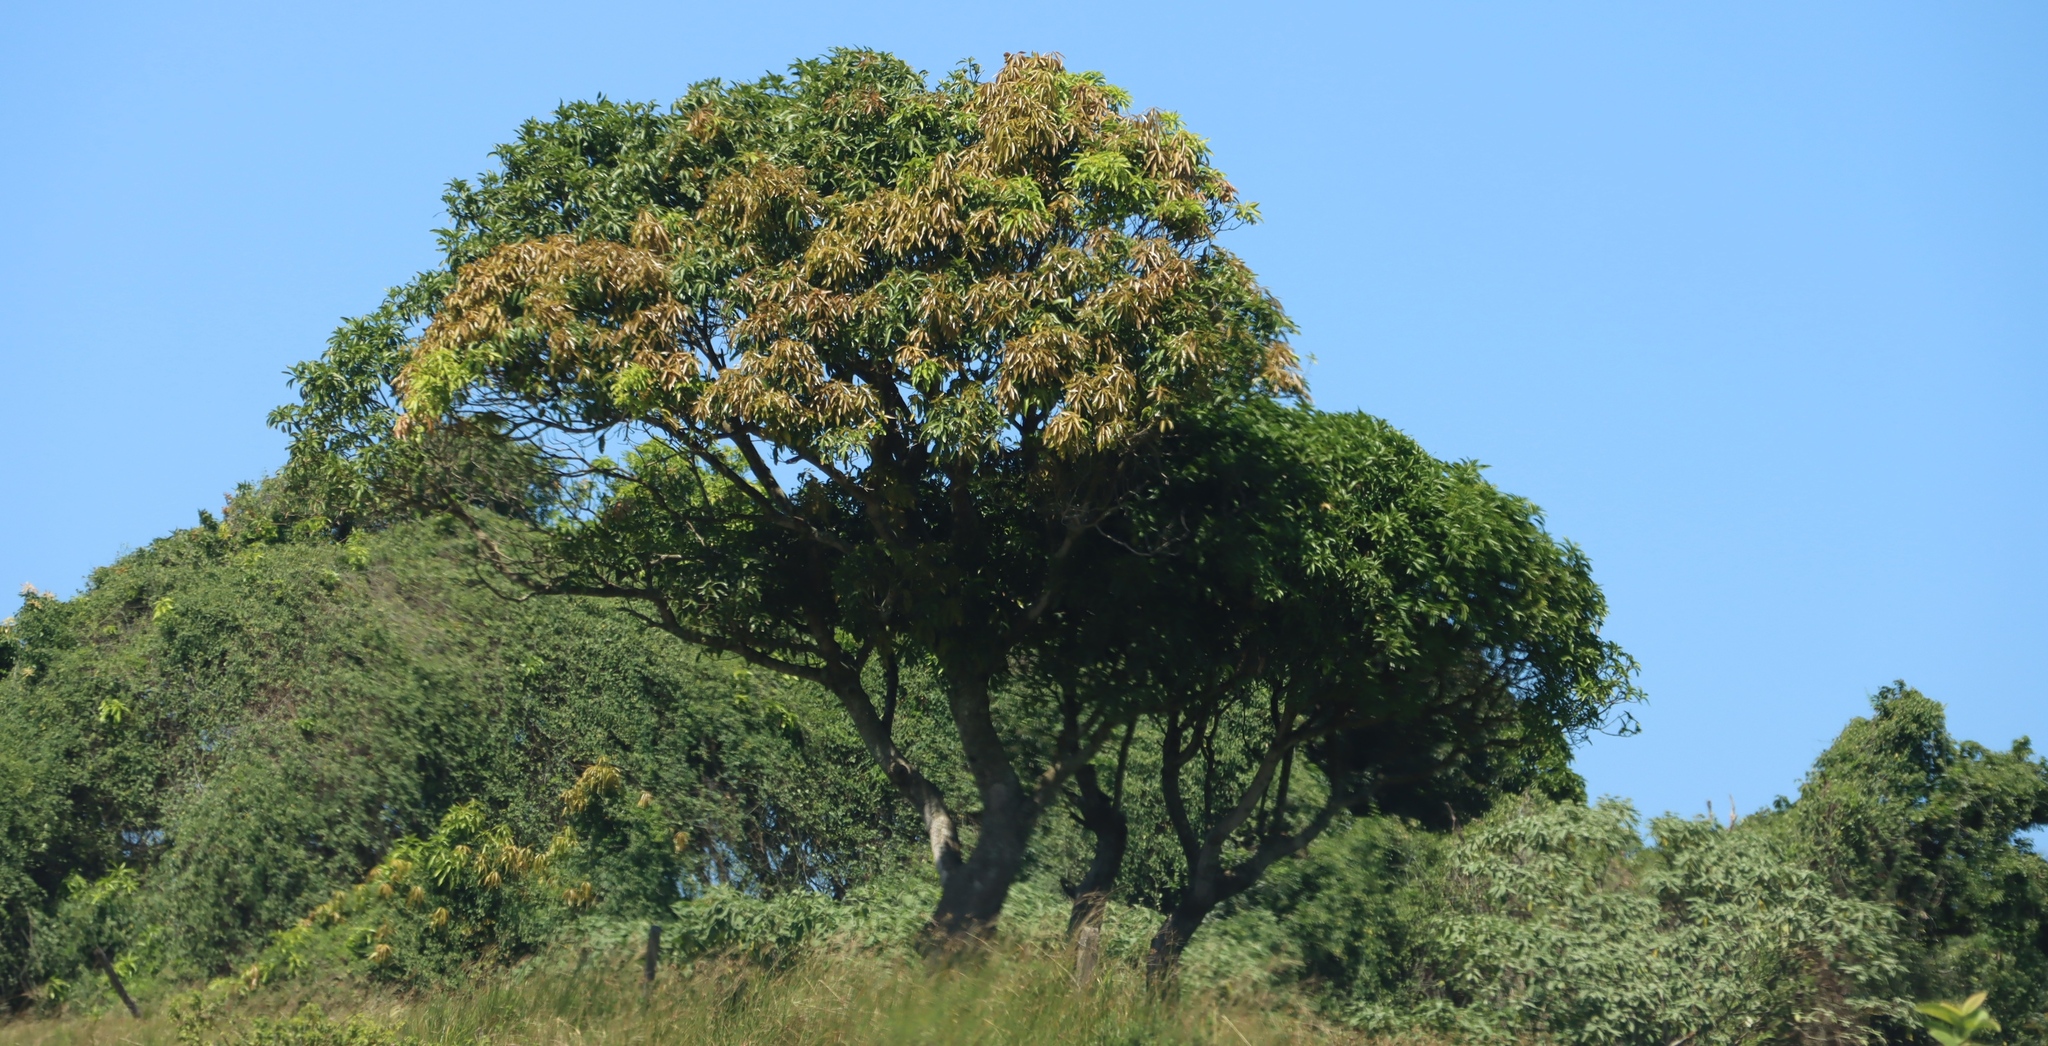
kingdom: Plantae
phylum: Tracheophyta
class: Magnoliopsida
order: Sapindales
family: Anacardiaceae
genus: Mangifera
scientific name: Mangifera indica
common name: Mango
